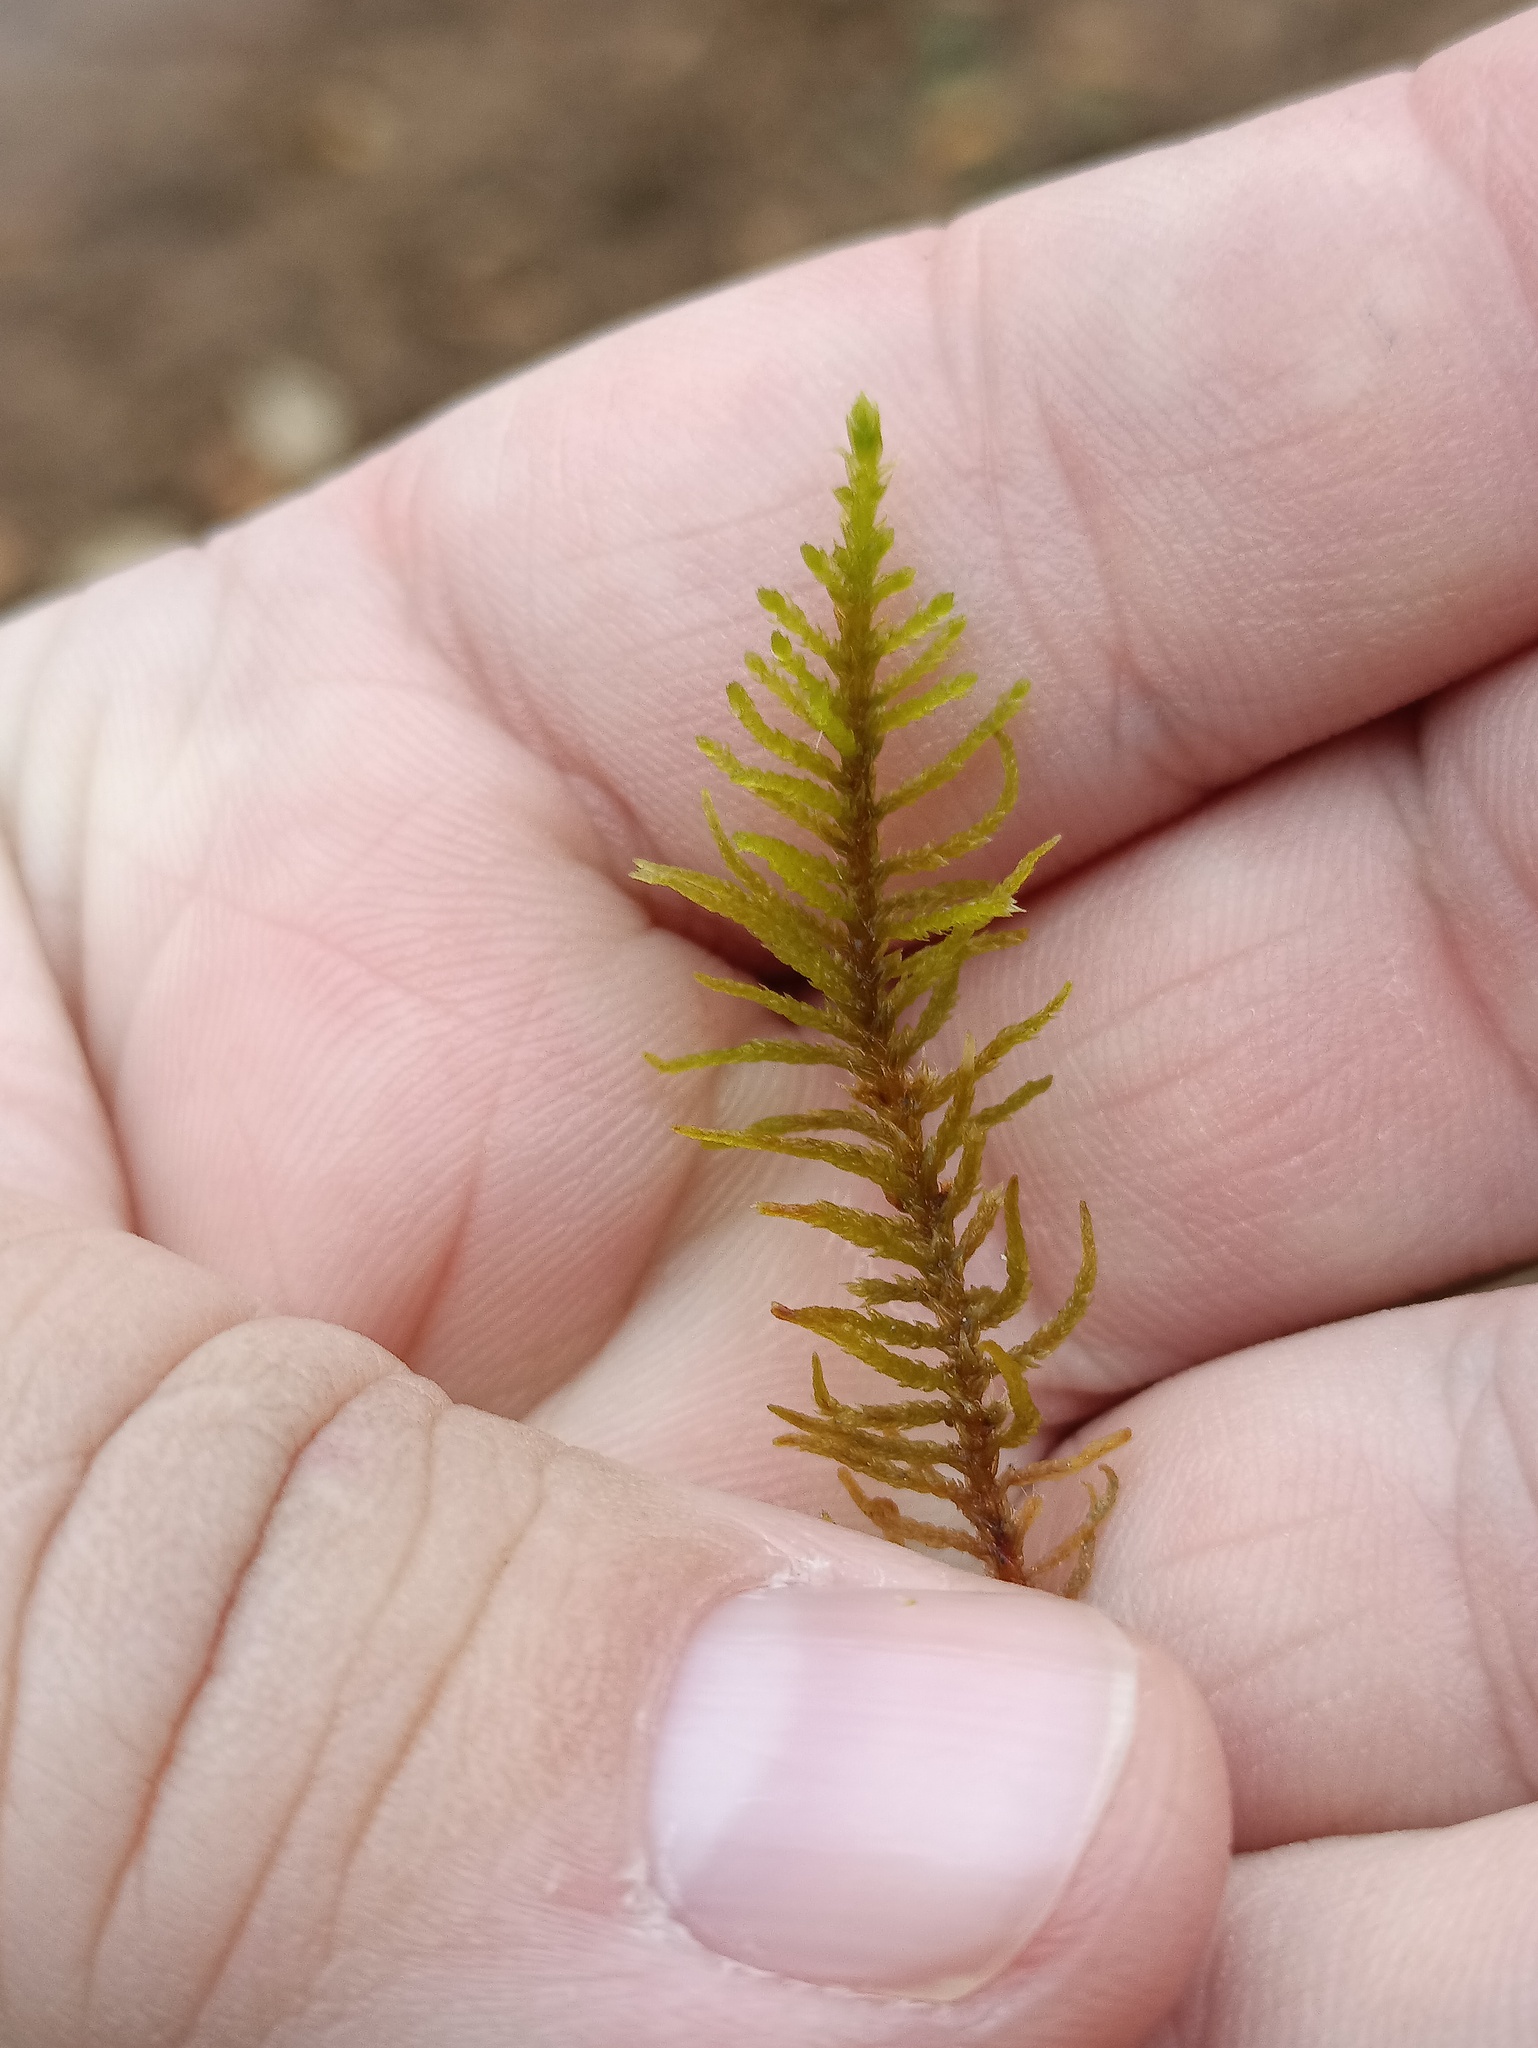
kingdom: Plantae
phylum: Bryophyta
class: Bryopsida
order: Hypnales
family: Thuidiaceae
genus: Abietinella
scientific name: Abietinella abietina
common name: Wiry fern moss
